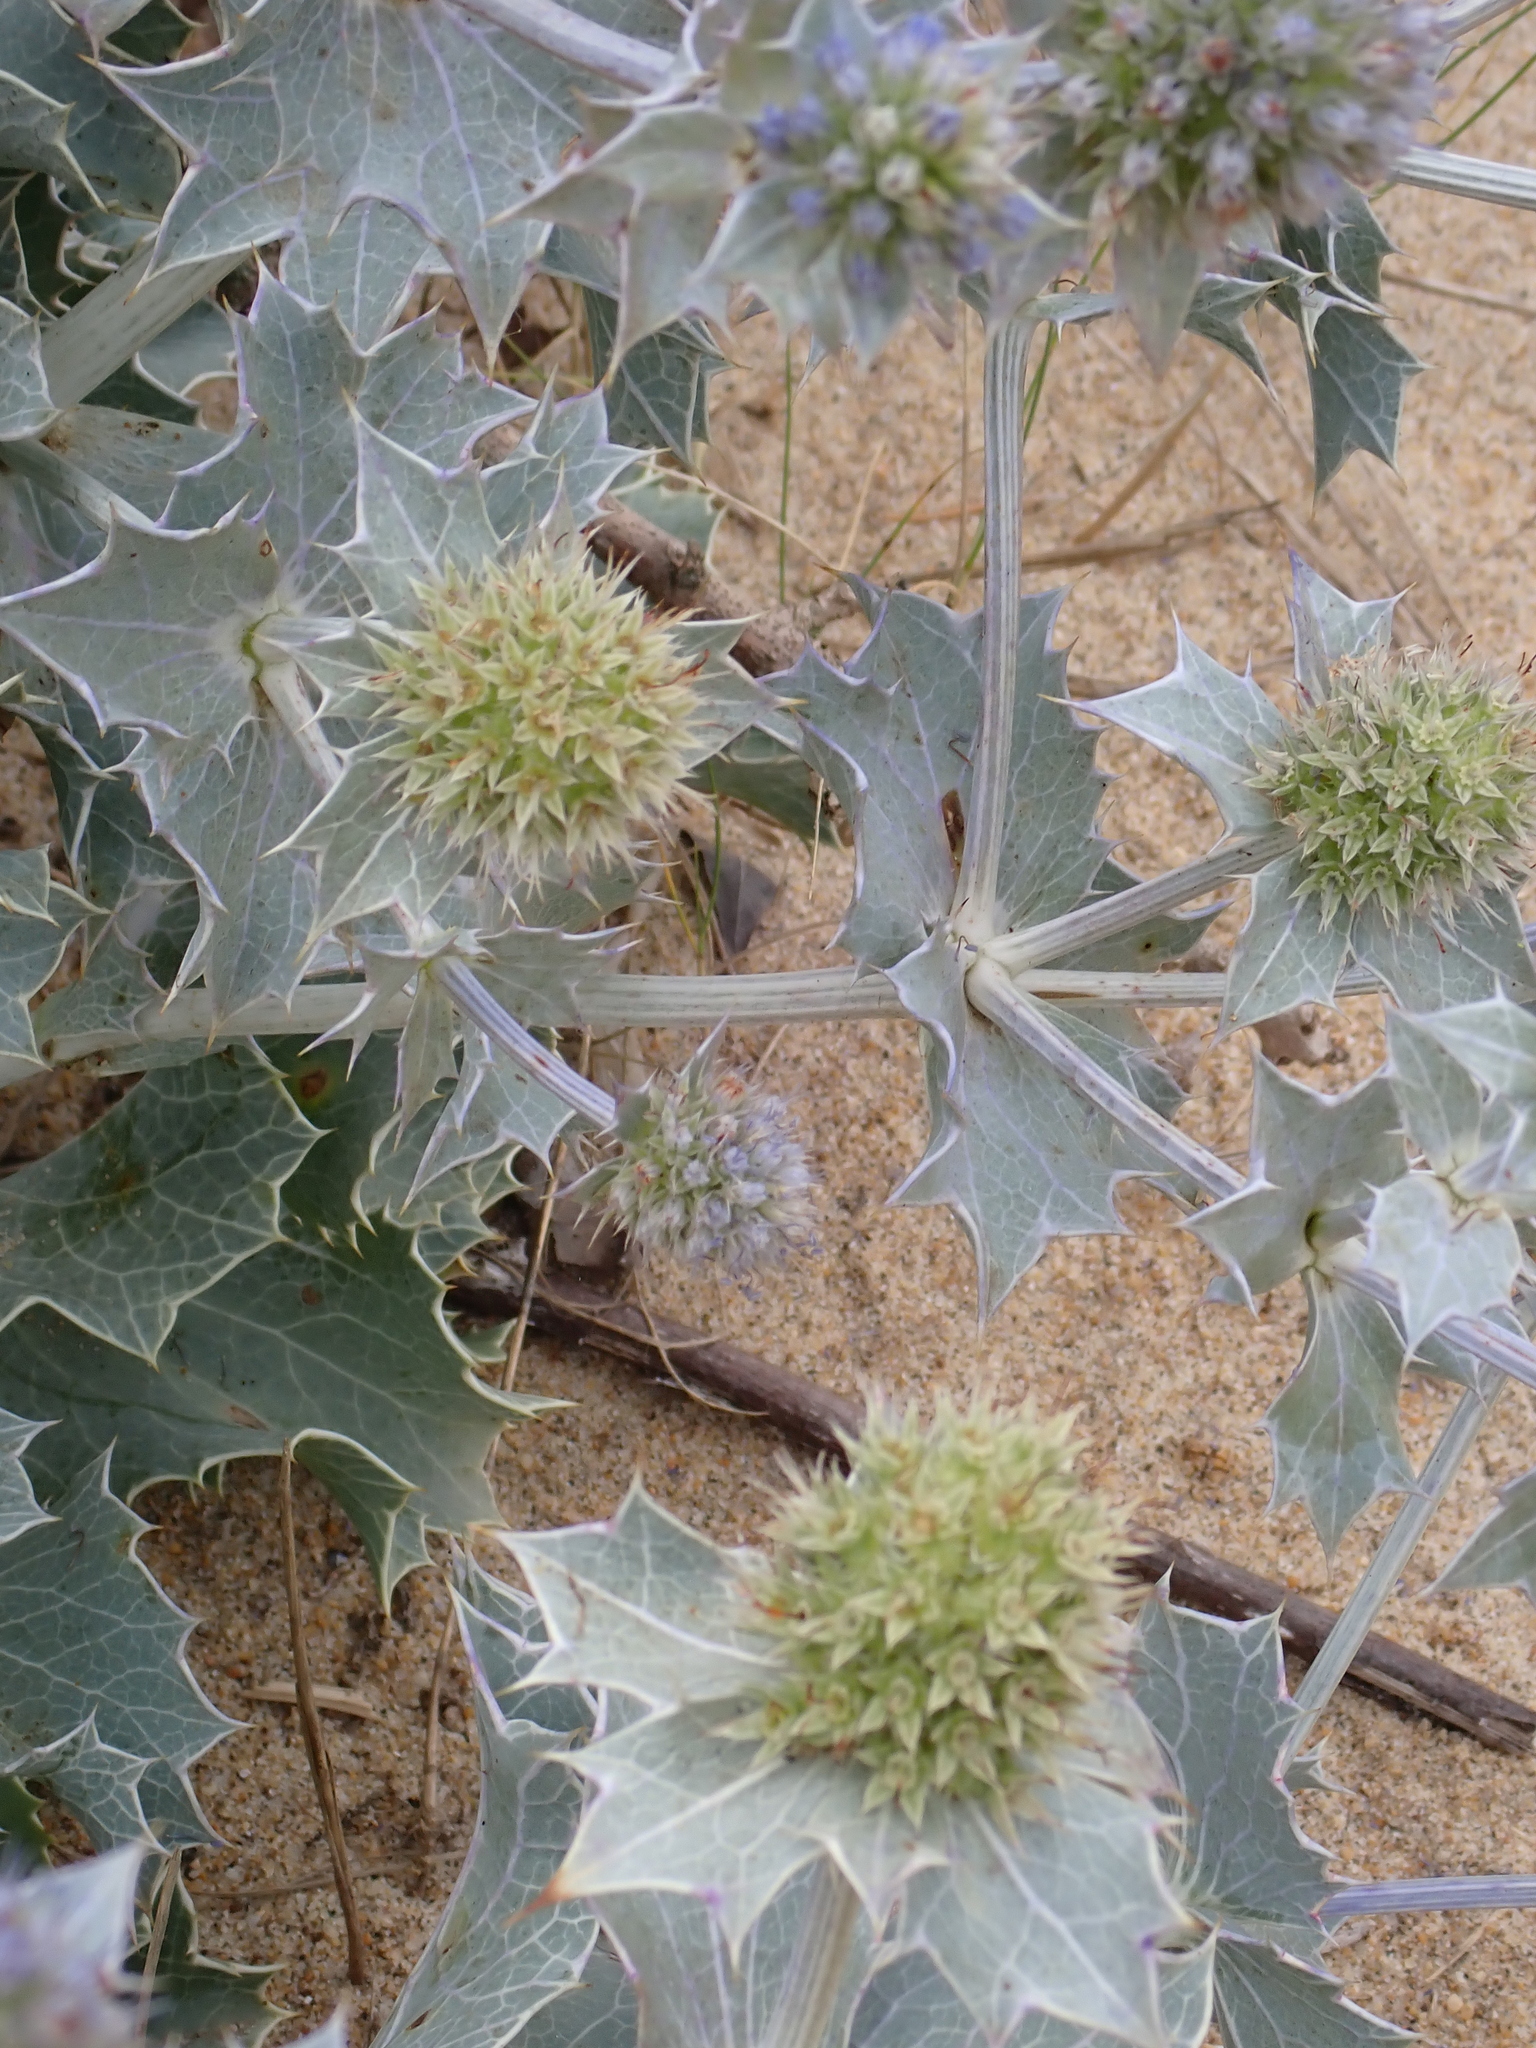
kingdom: Plantae
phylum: Tracheophyta
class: Magnoliopsida
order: Apiales
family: Apiaceae
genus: Eryngium
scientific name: Eryngium maritimum
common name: Sea-holly
